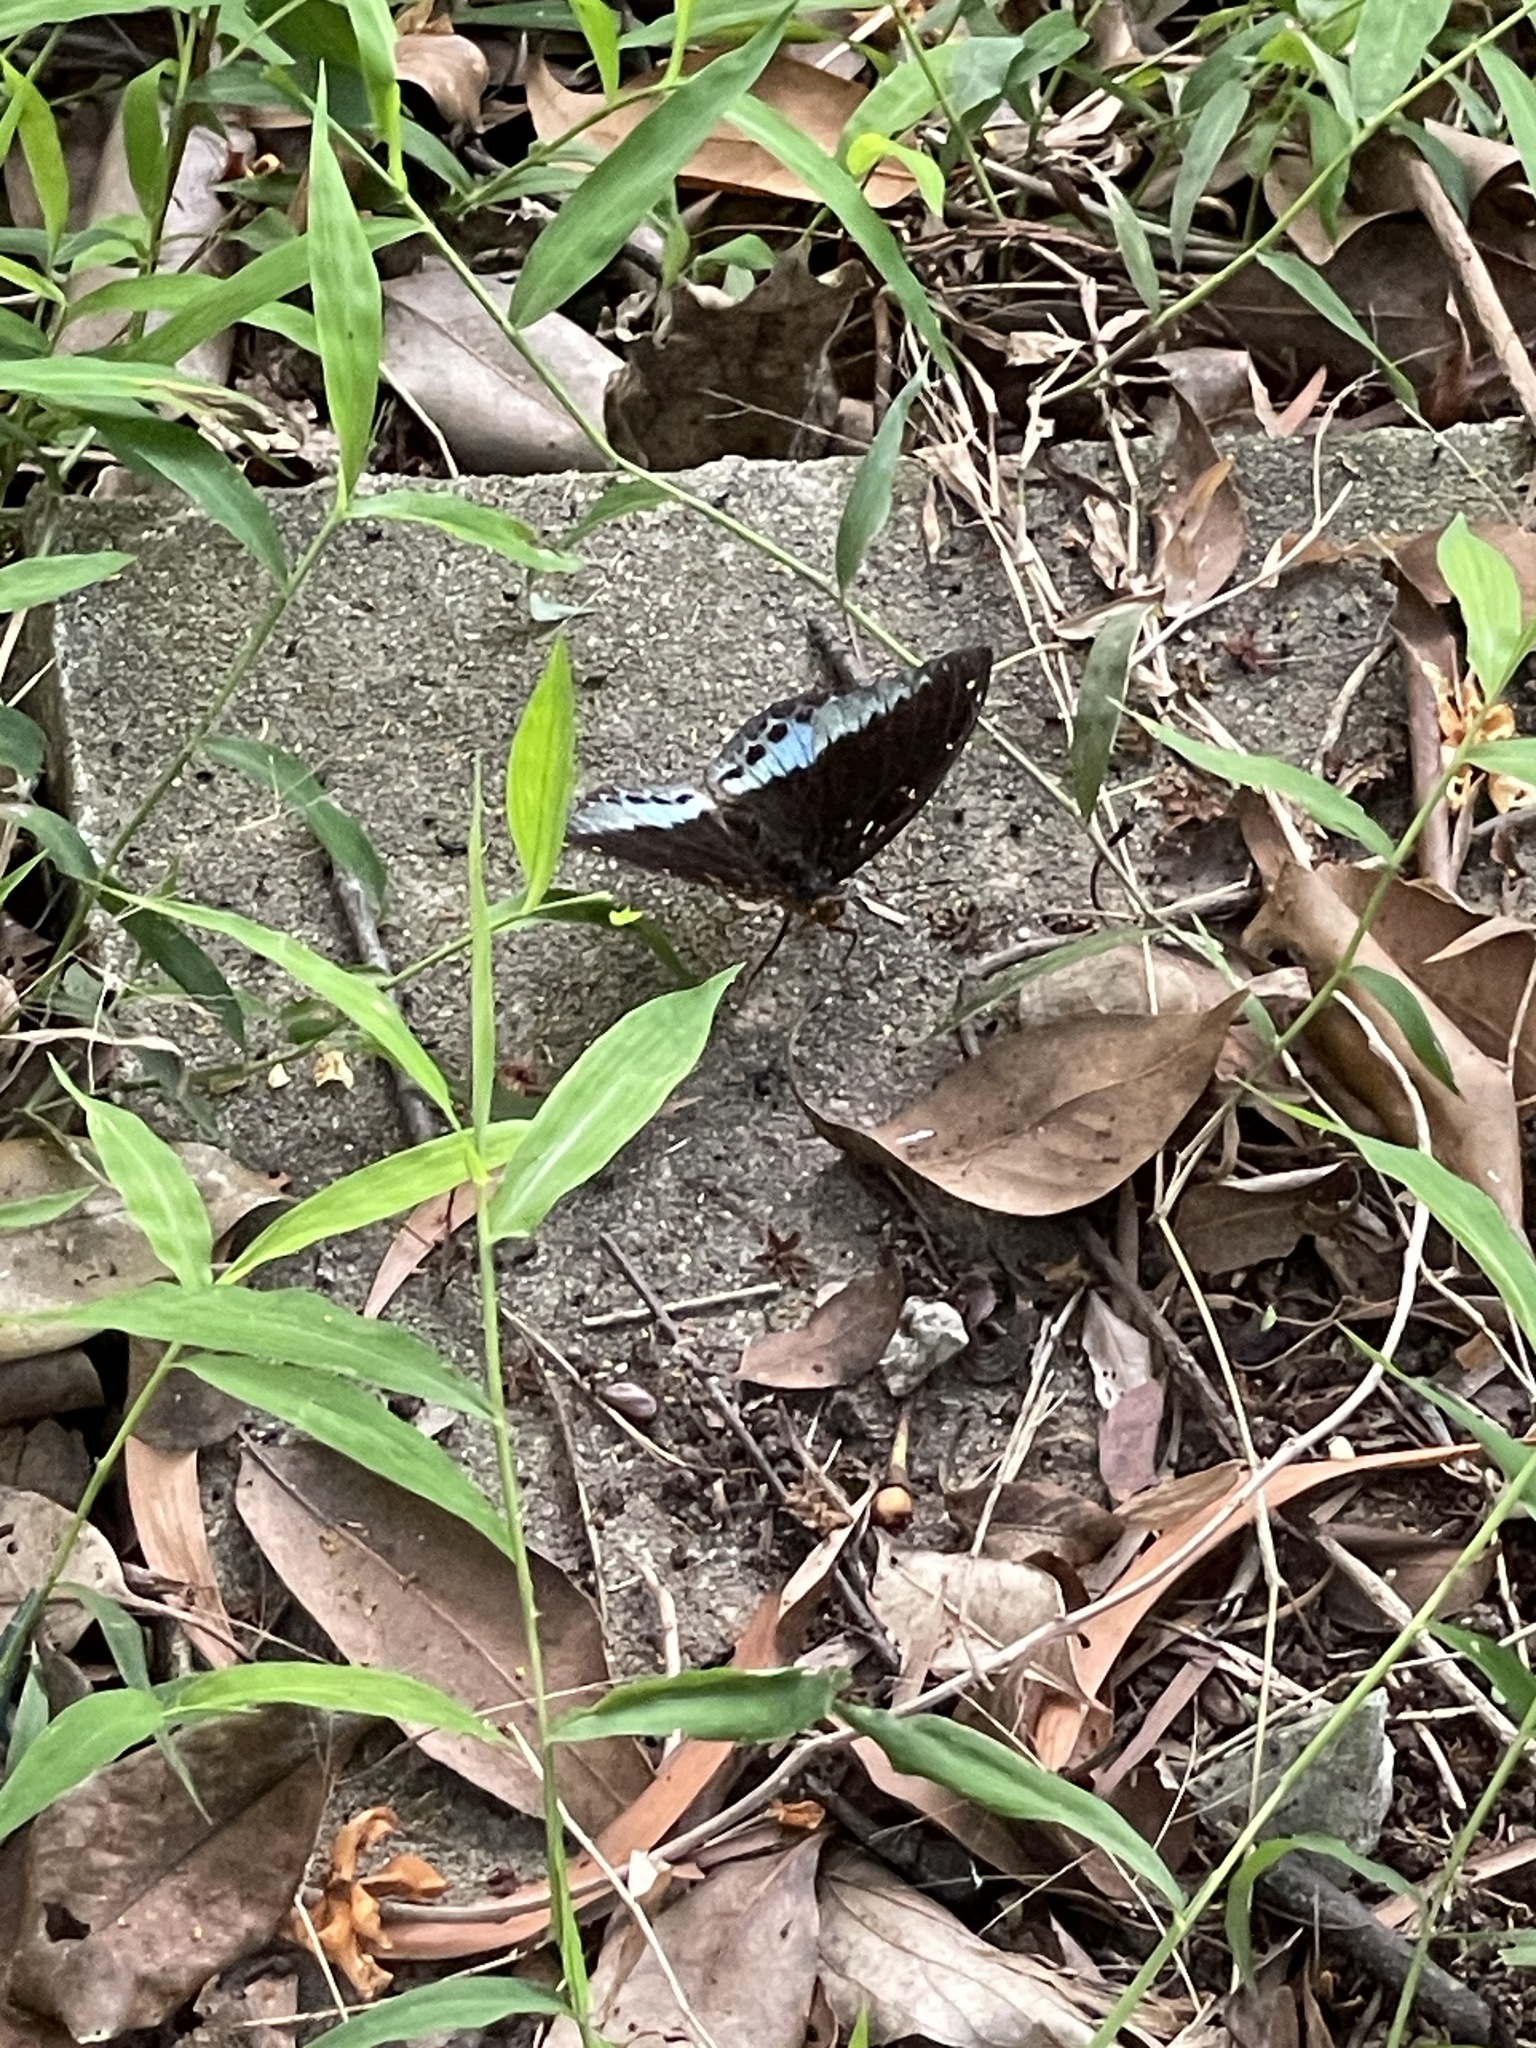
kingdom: Animalia
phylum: Arthropoda
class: Insecta
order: Lepidoptera
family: Nymphalidae
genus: Lexias
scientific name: Lexias pardalis
